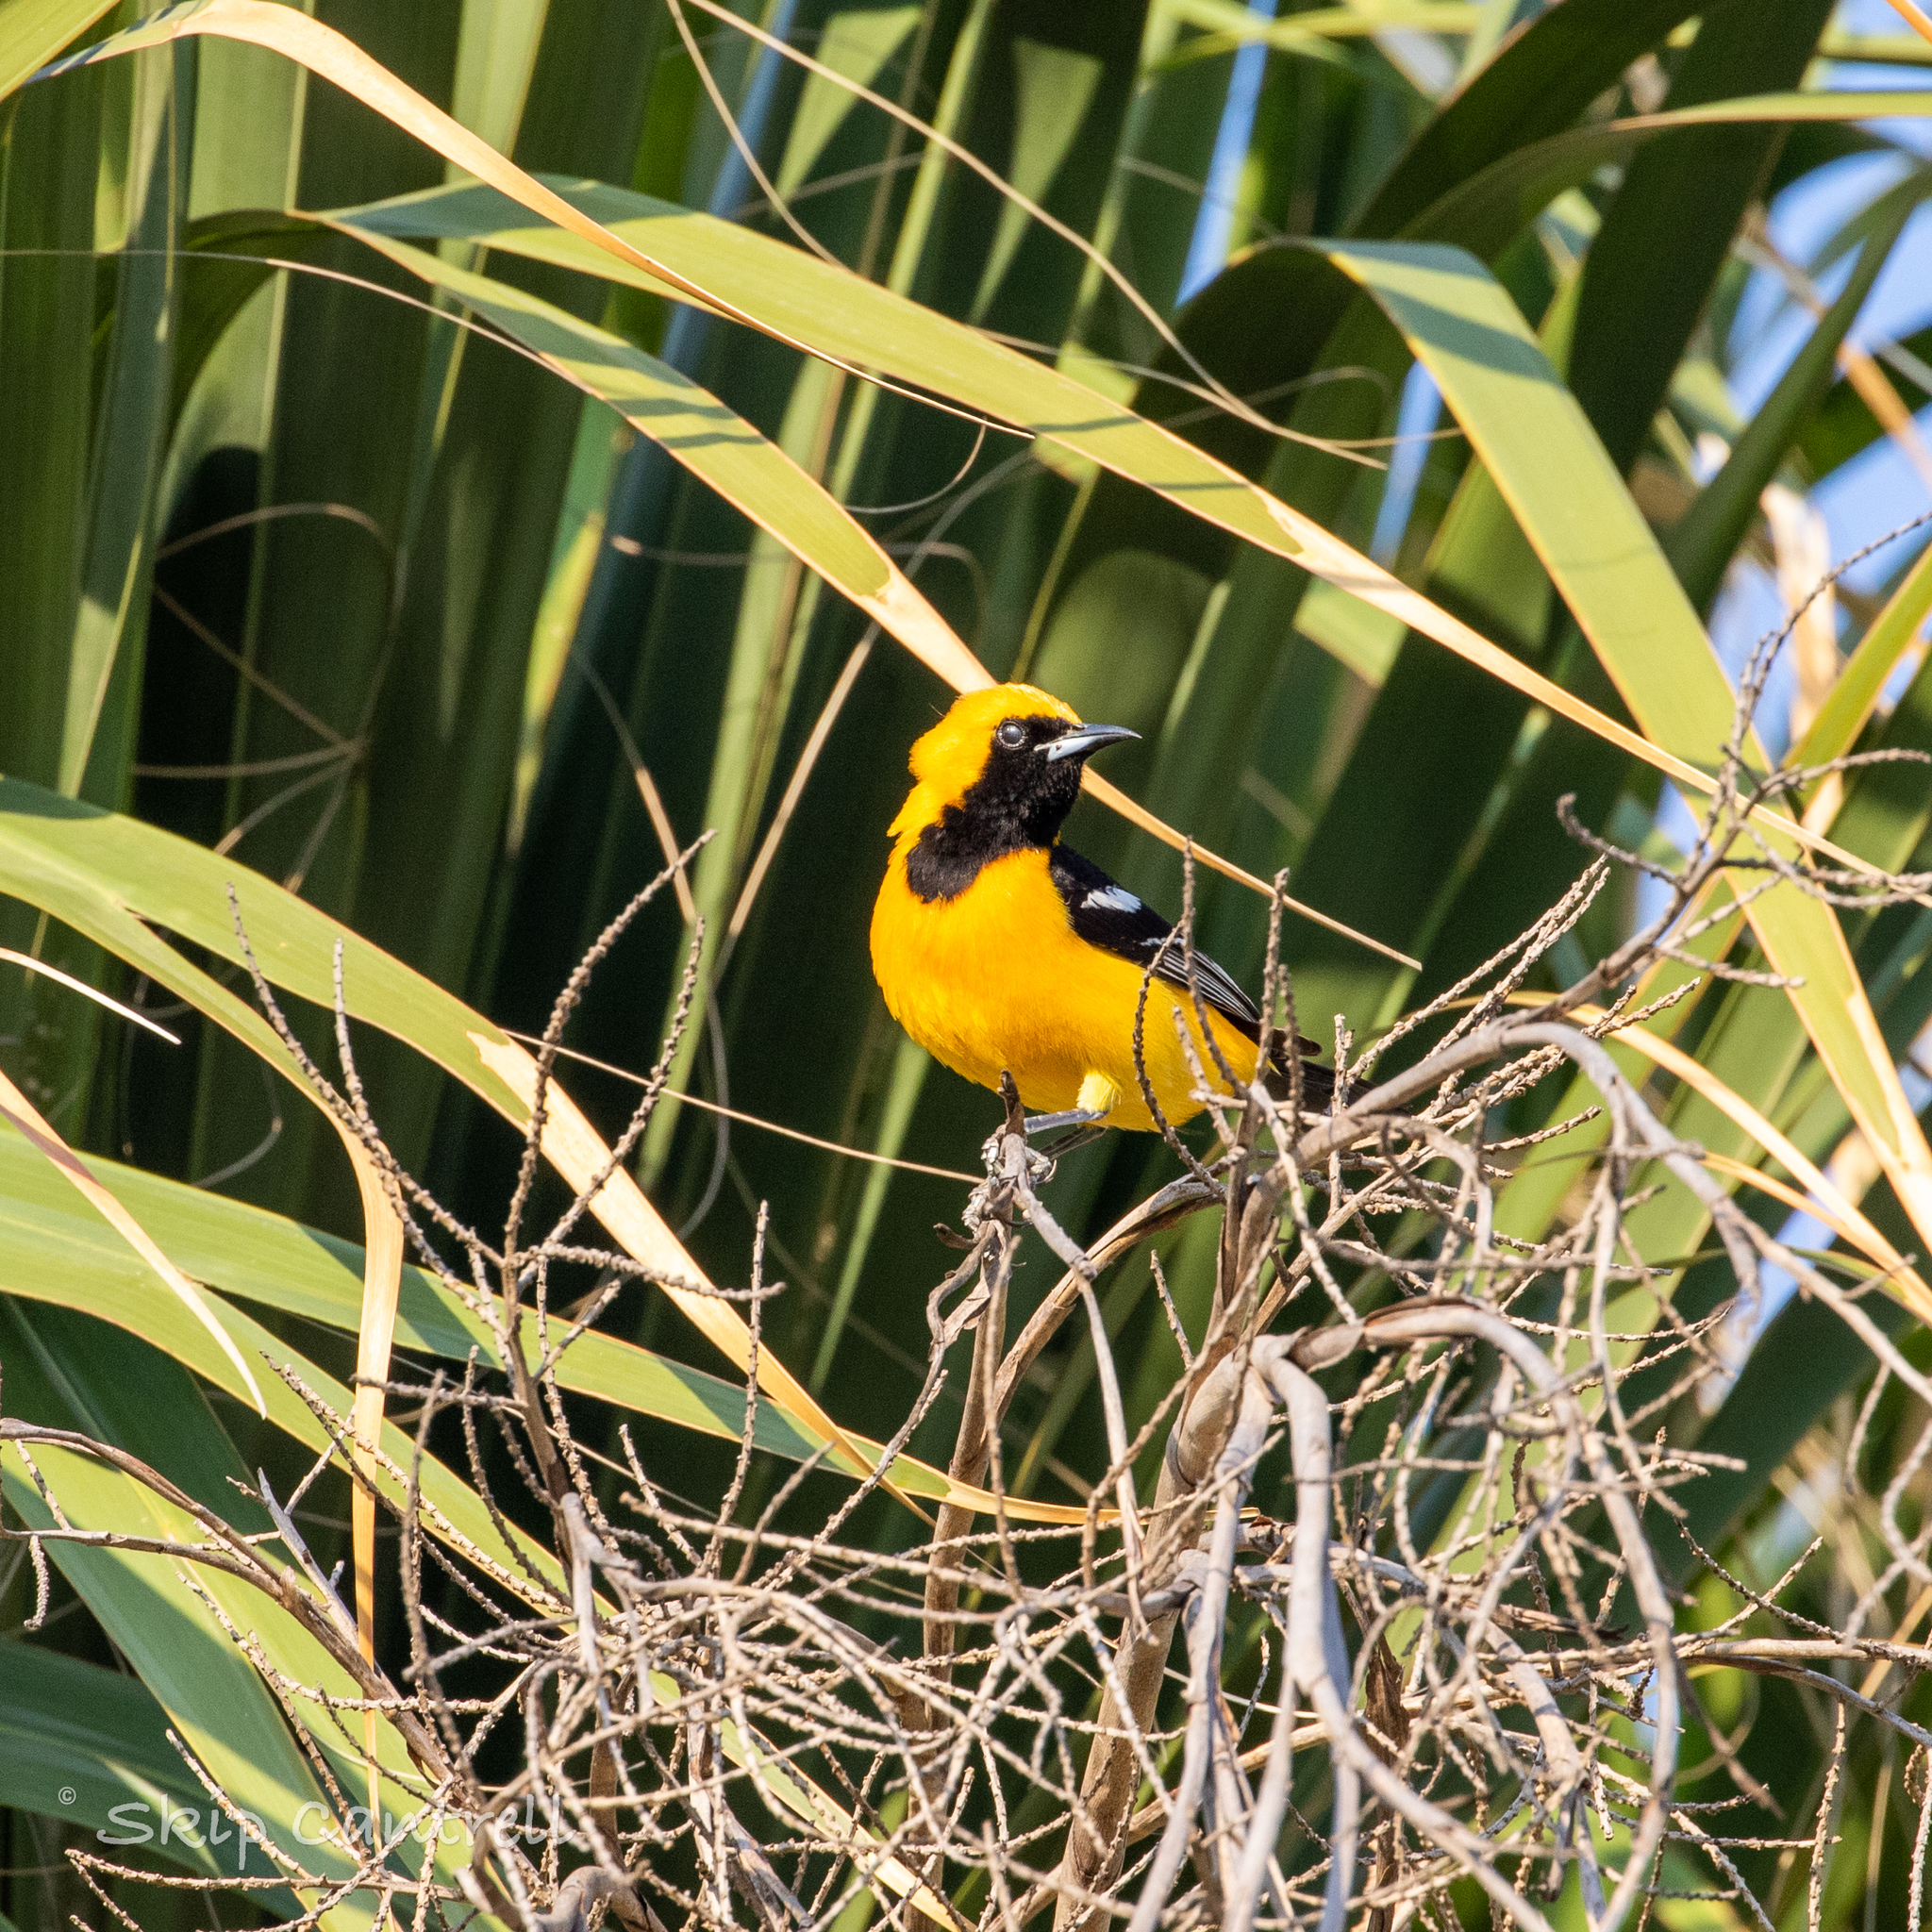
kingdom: Animalia
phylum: Chordata
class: Aves
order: Passeriformes
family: Icteridae
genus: Icterus
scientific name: Icterus cucullatus
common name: Hooded oriole
